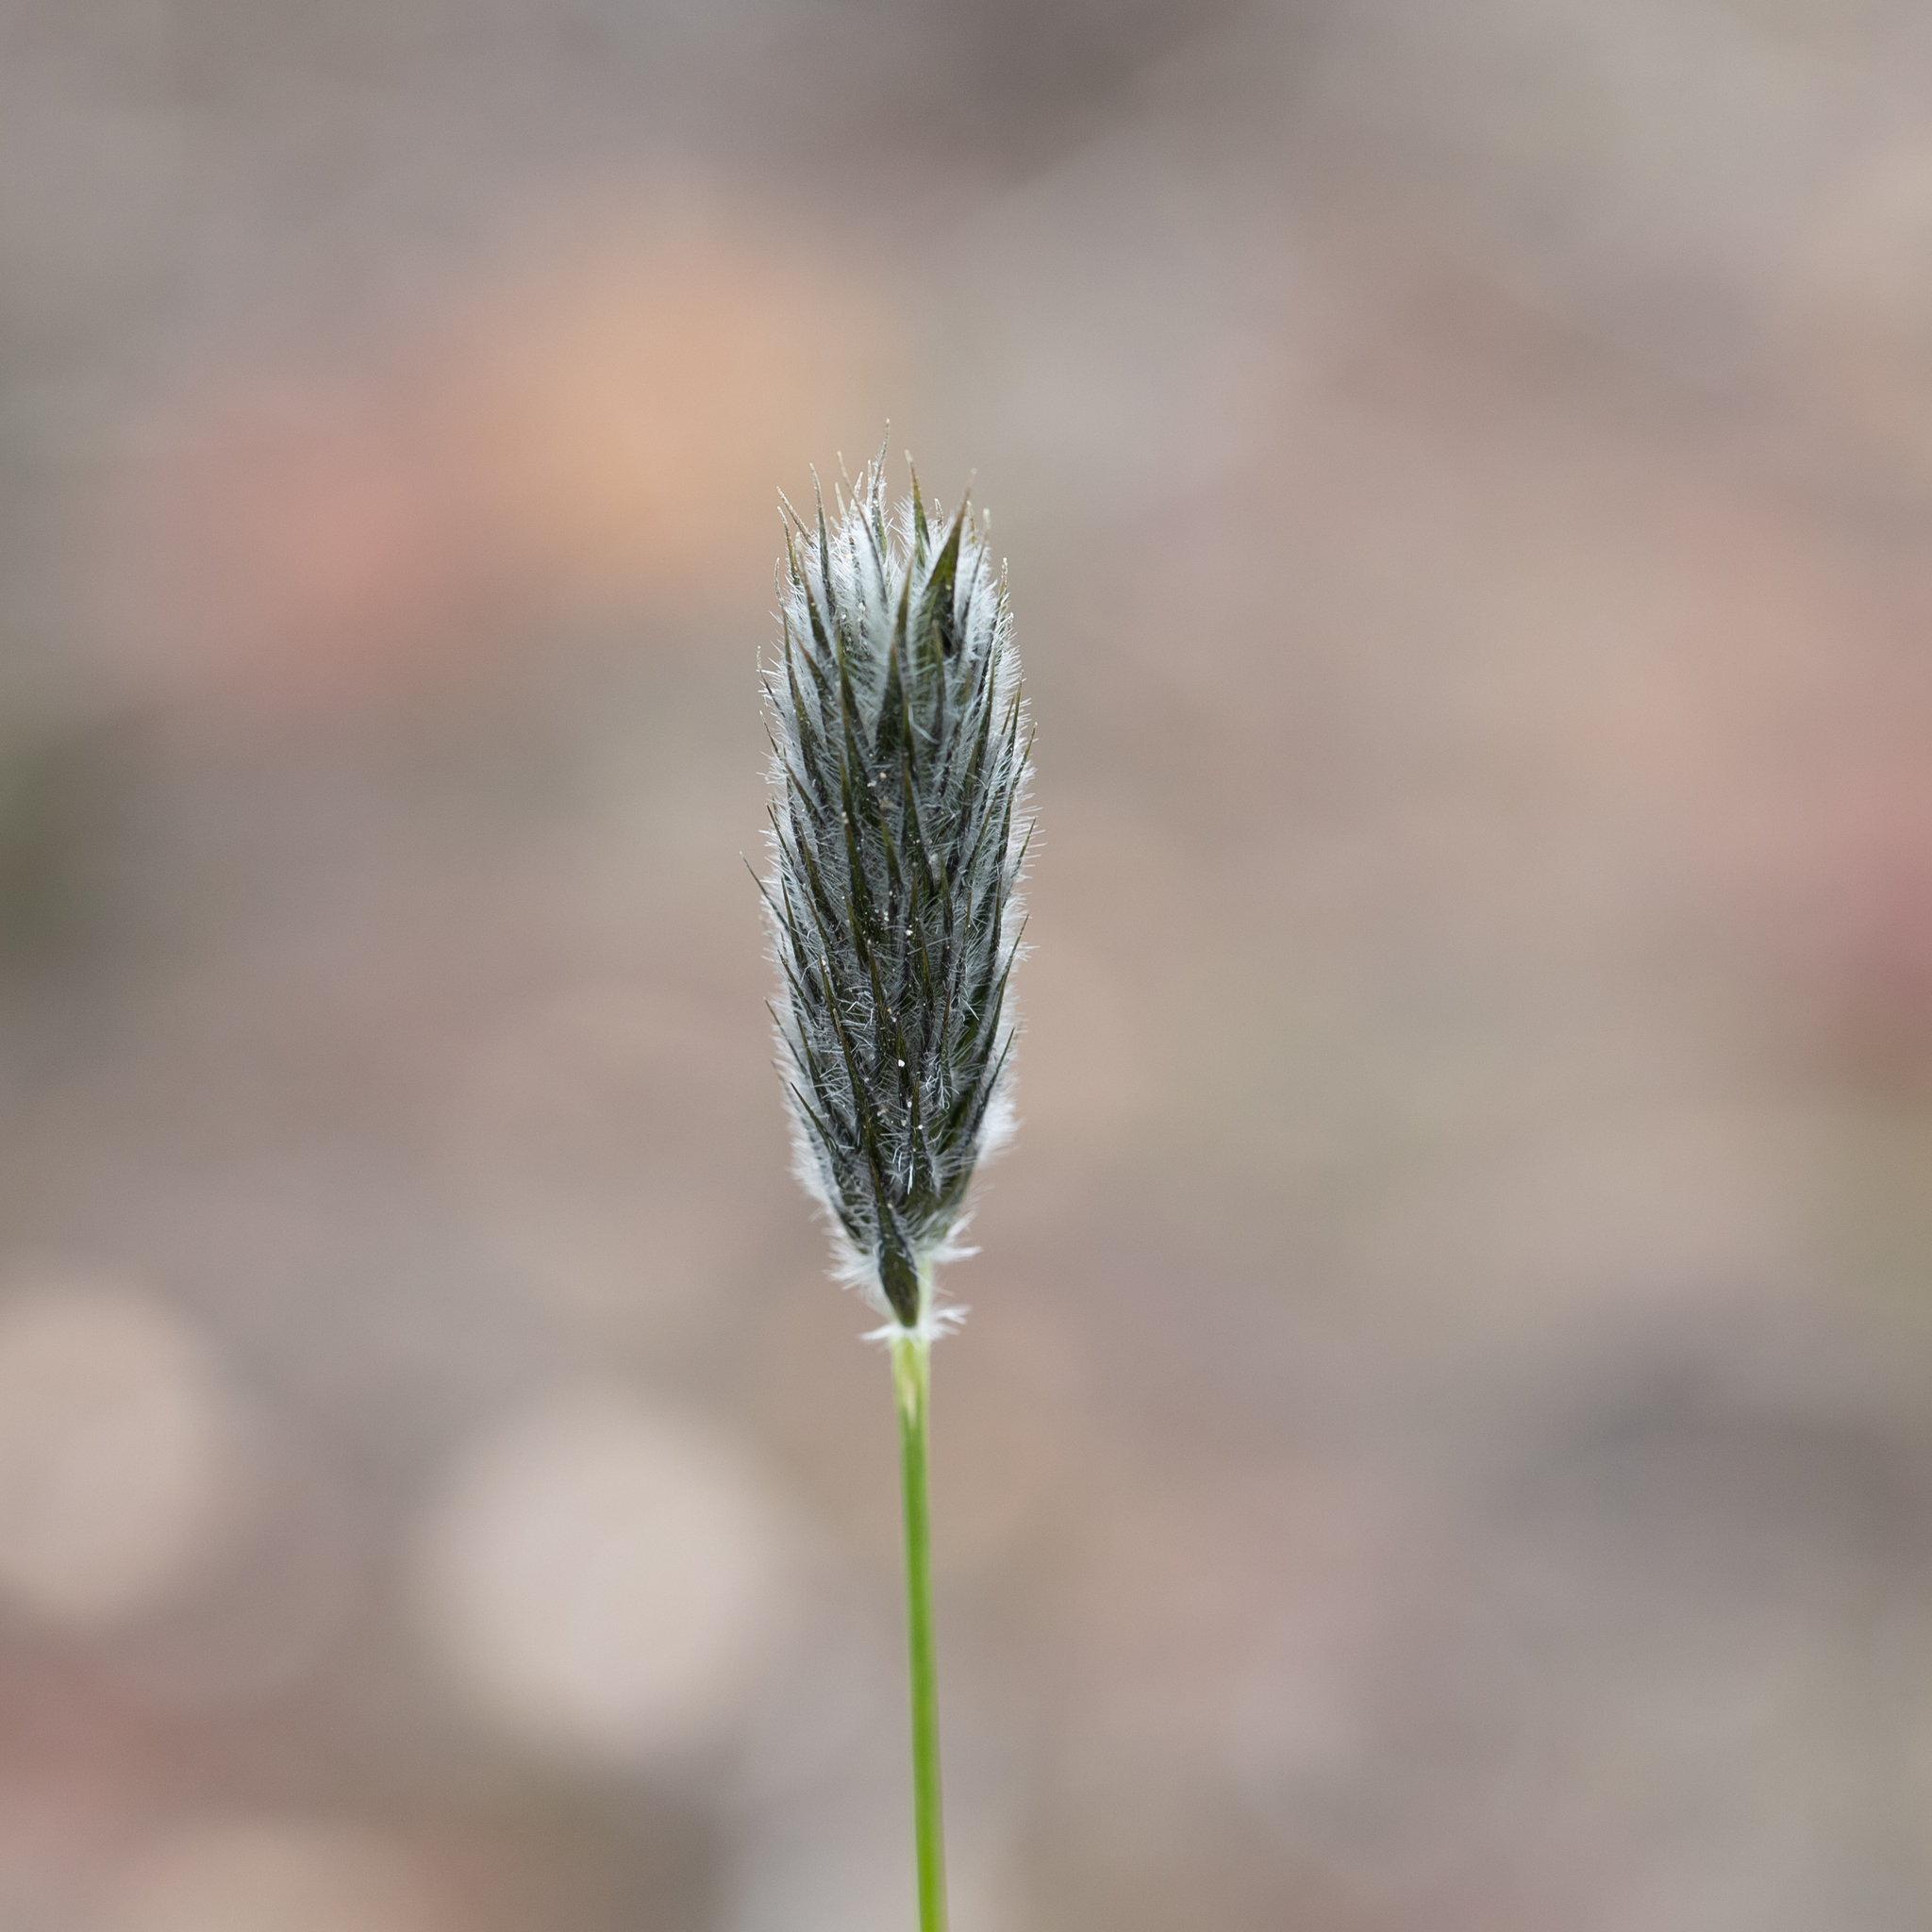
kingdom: Plantae
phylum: Tracheophyta
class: Liliopsida
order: Poales
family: Poaceae
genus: Neurachne
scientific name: Neurachne alopecuroidea
